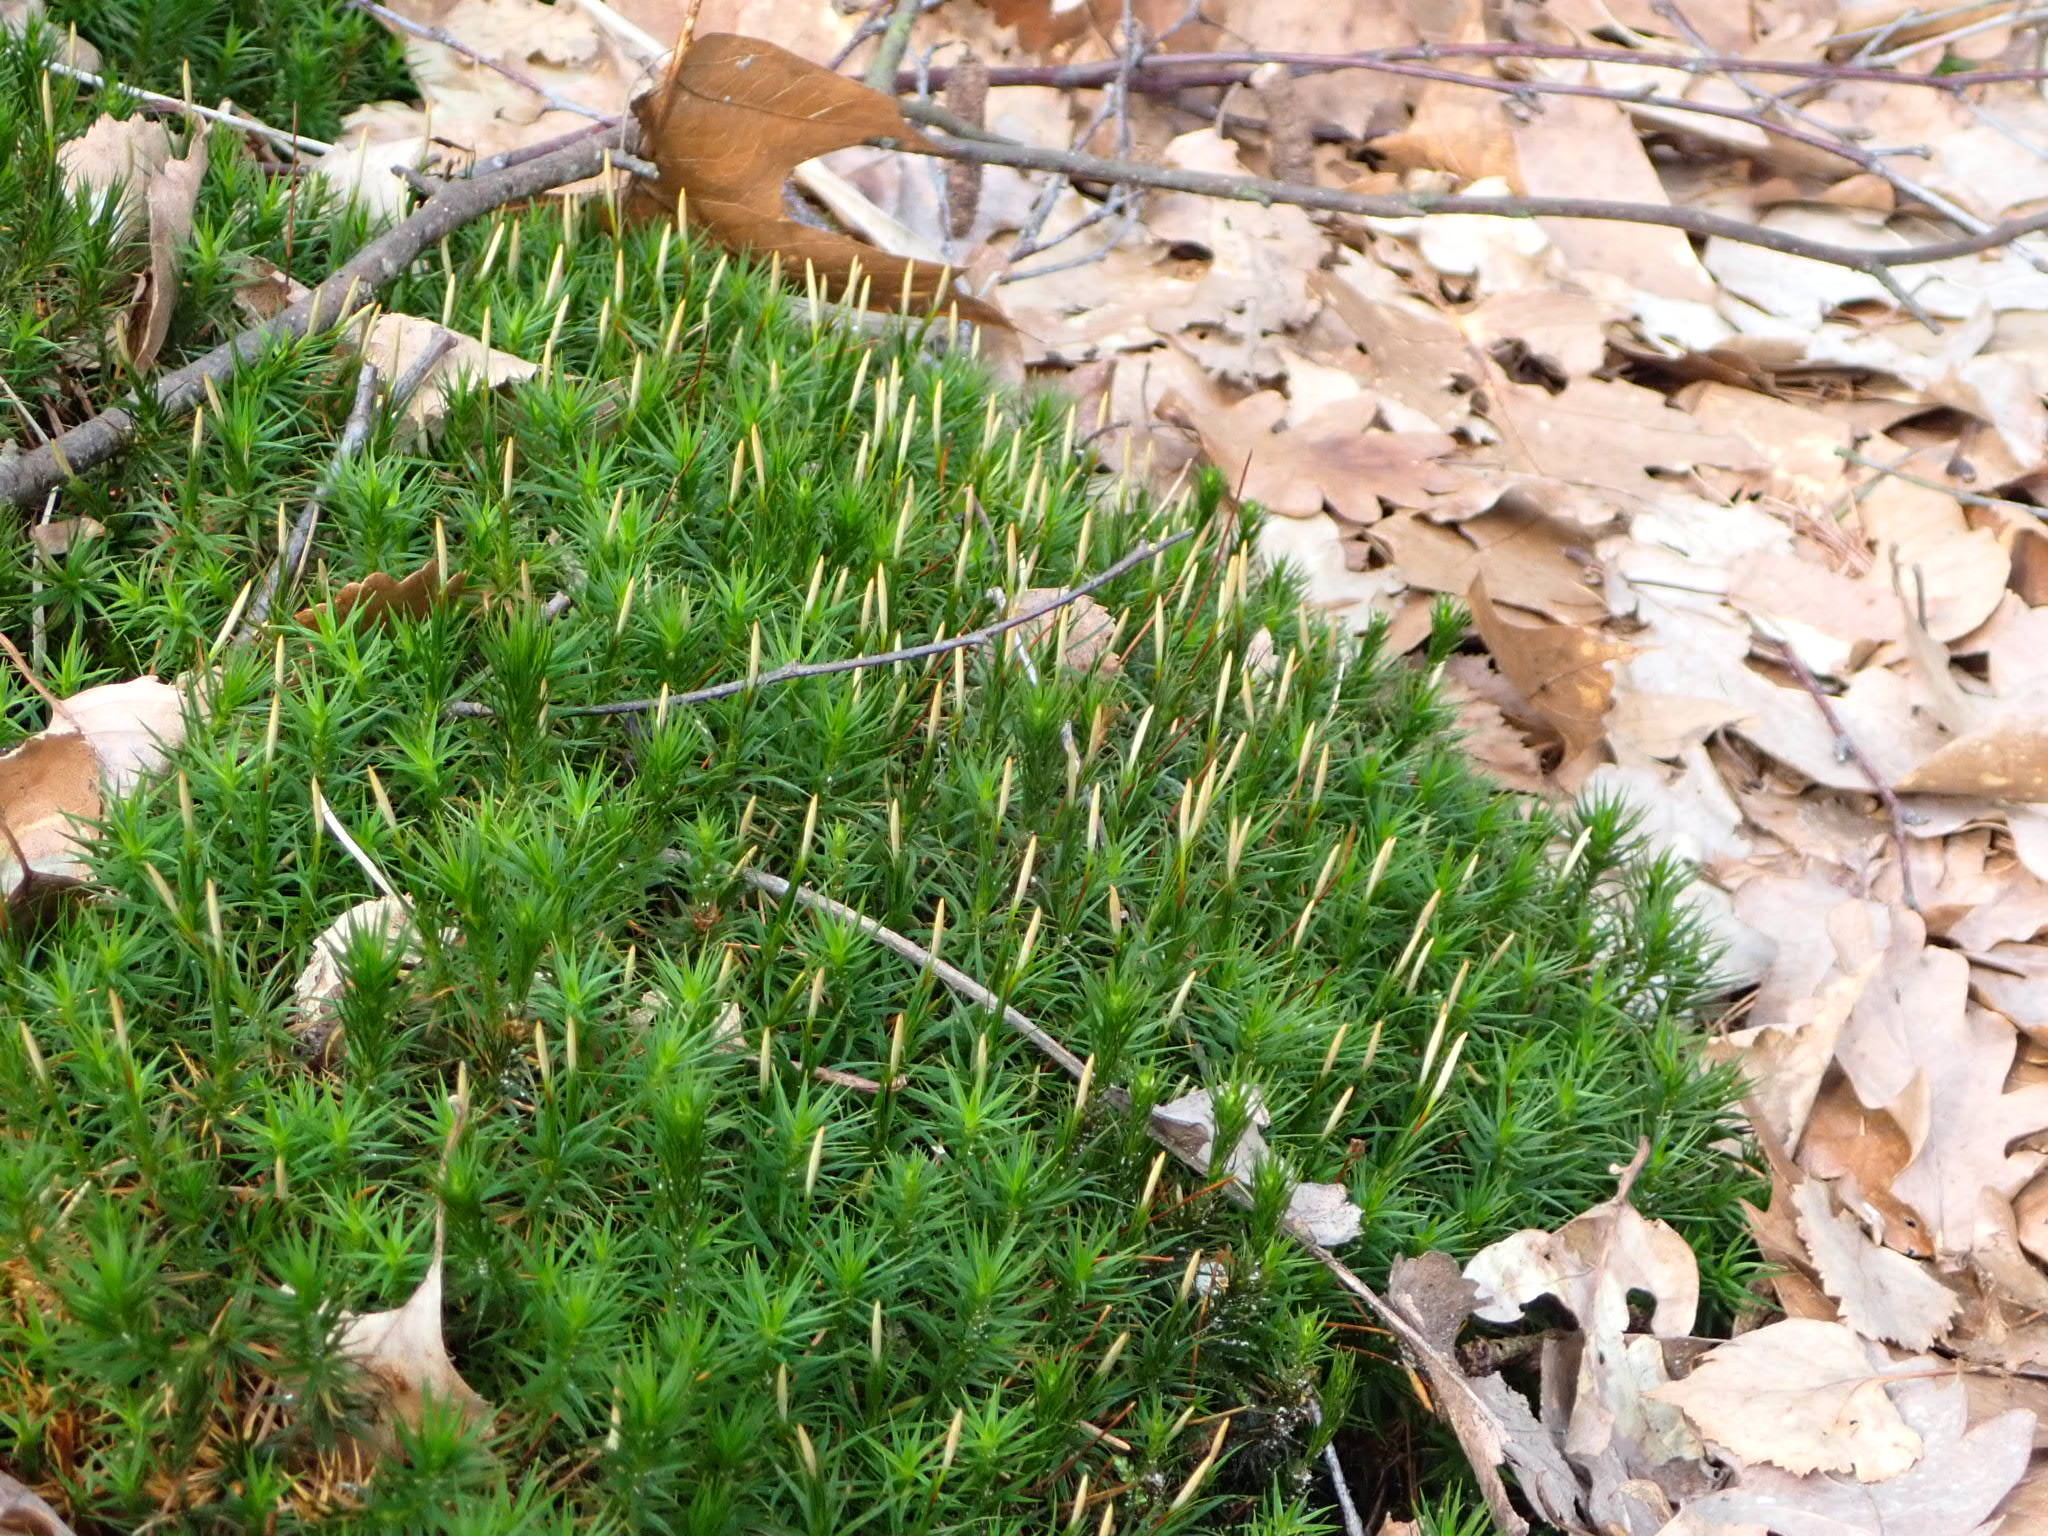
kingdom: Plantae
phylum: Bryophyta
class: Polytrichopsida
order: Polytrichales
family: Polytrichaceae
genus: Polytrichum
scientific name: Polytrichum formosum
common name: Bank haircap moss
